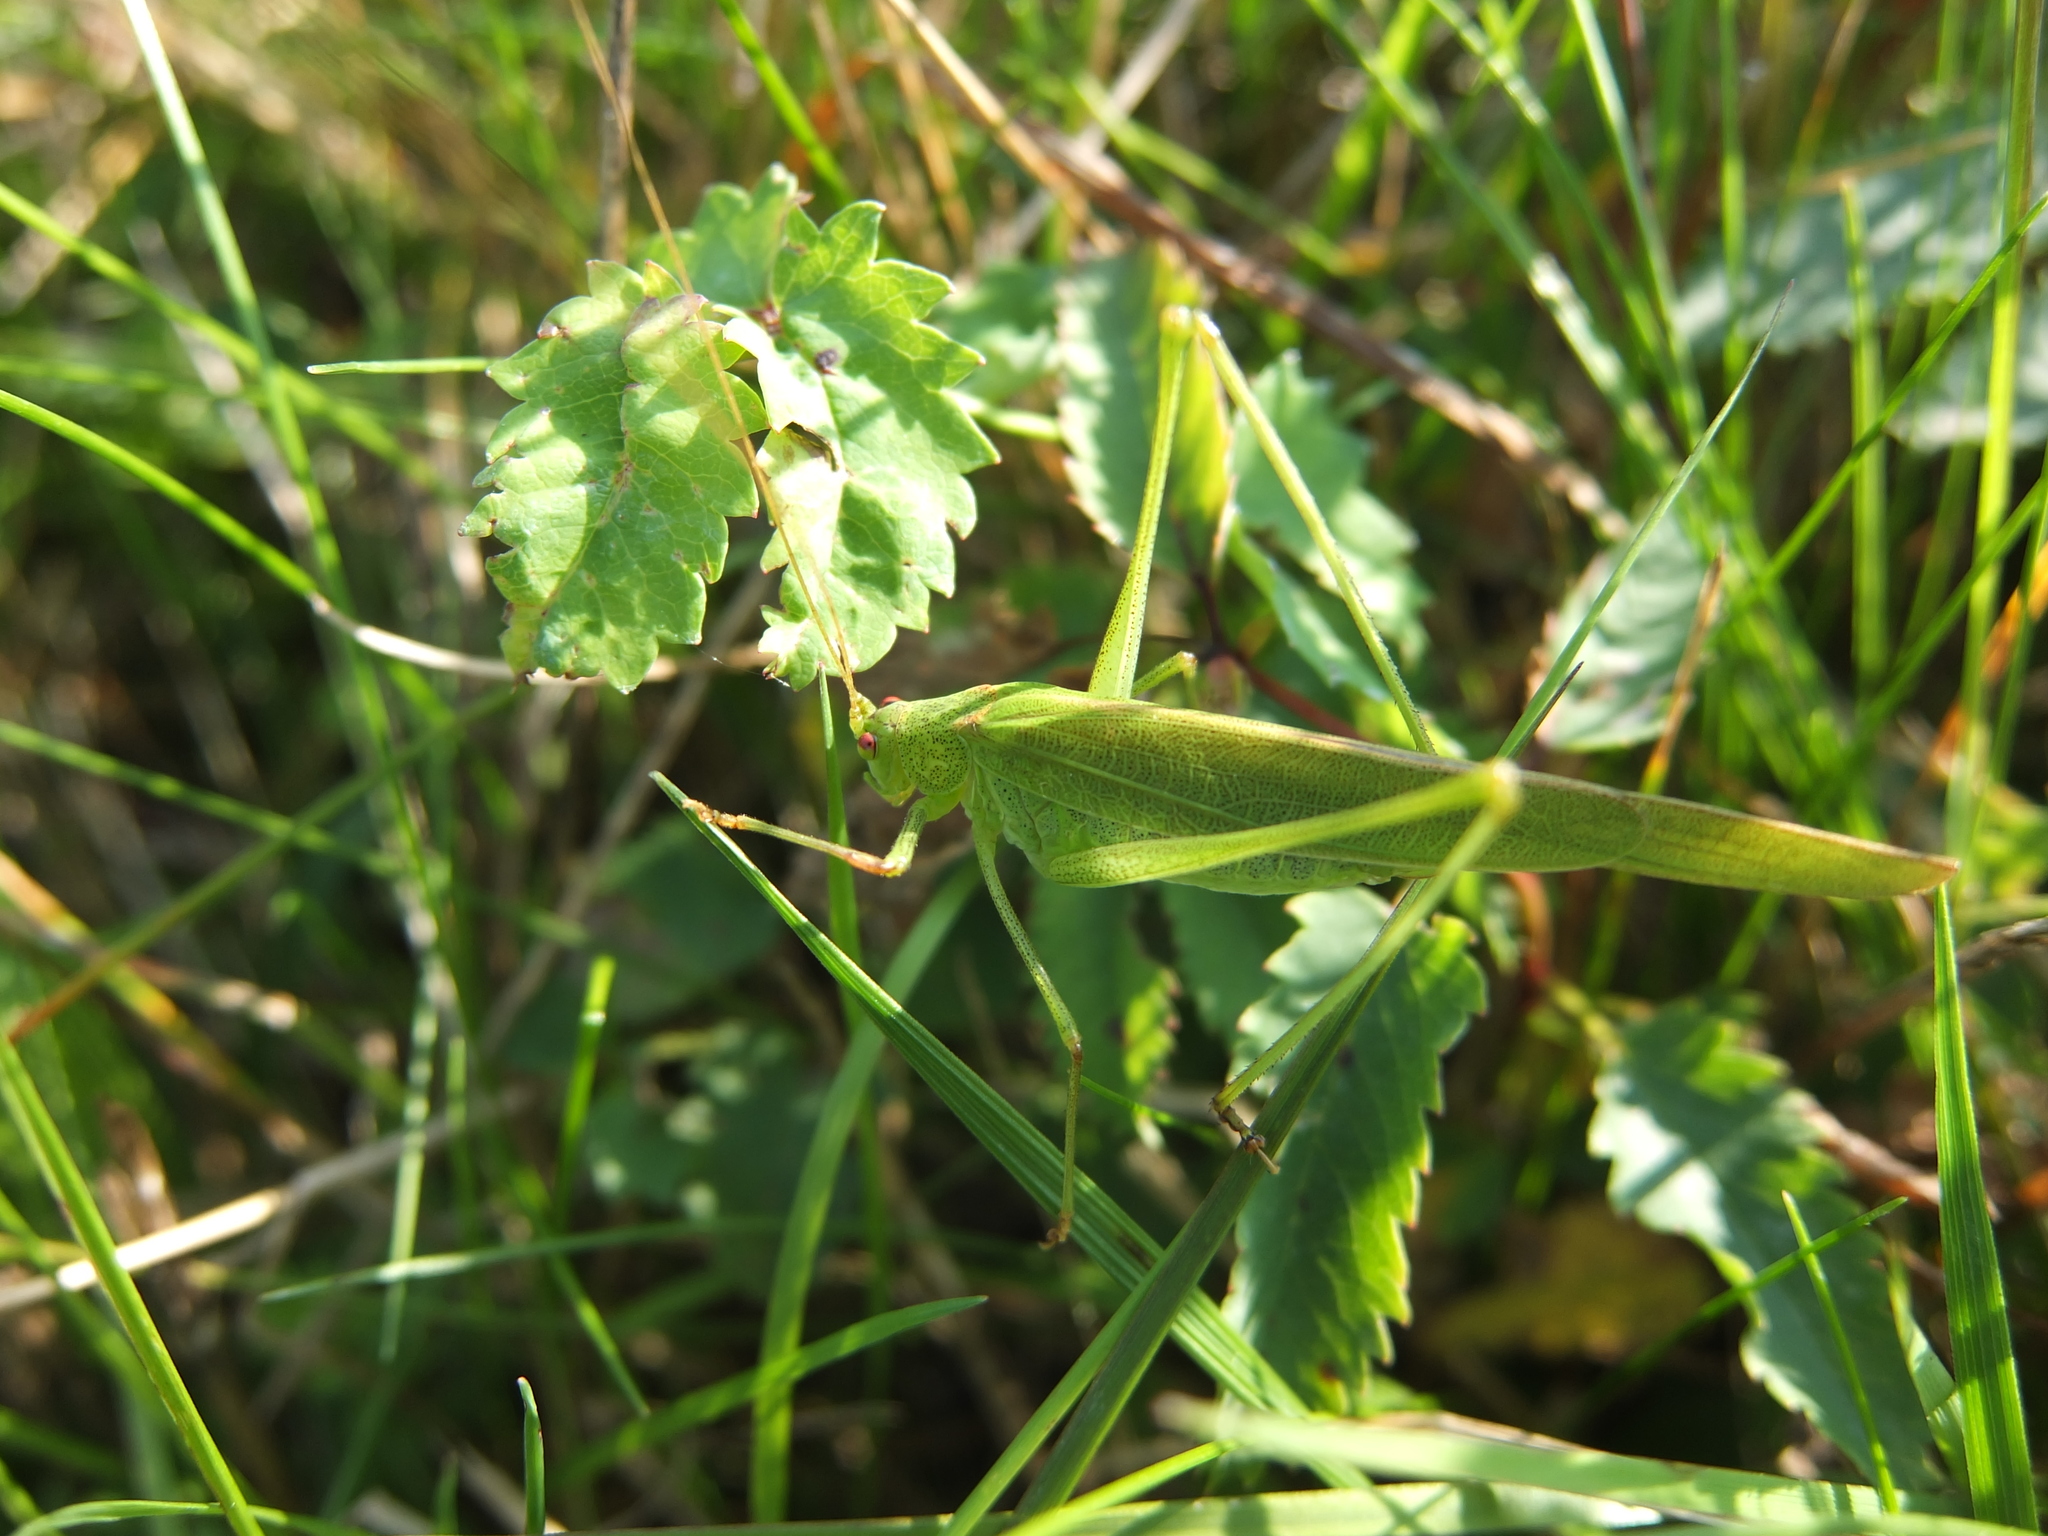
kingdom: Animalia
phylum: Arthropoda
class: Insecta
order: Orthoptera
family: Tettigoniidae
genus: Phaneroptera
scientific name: Phaneroptera falcata
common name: Sickle-bearing bush-cricket
